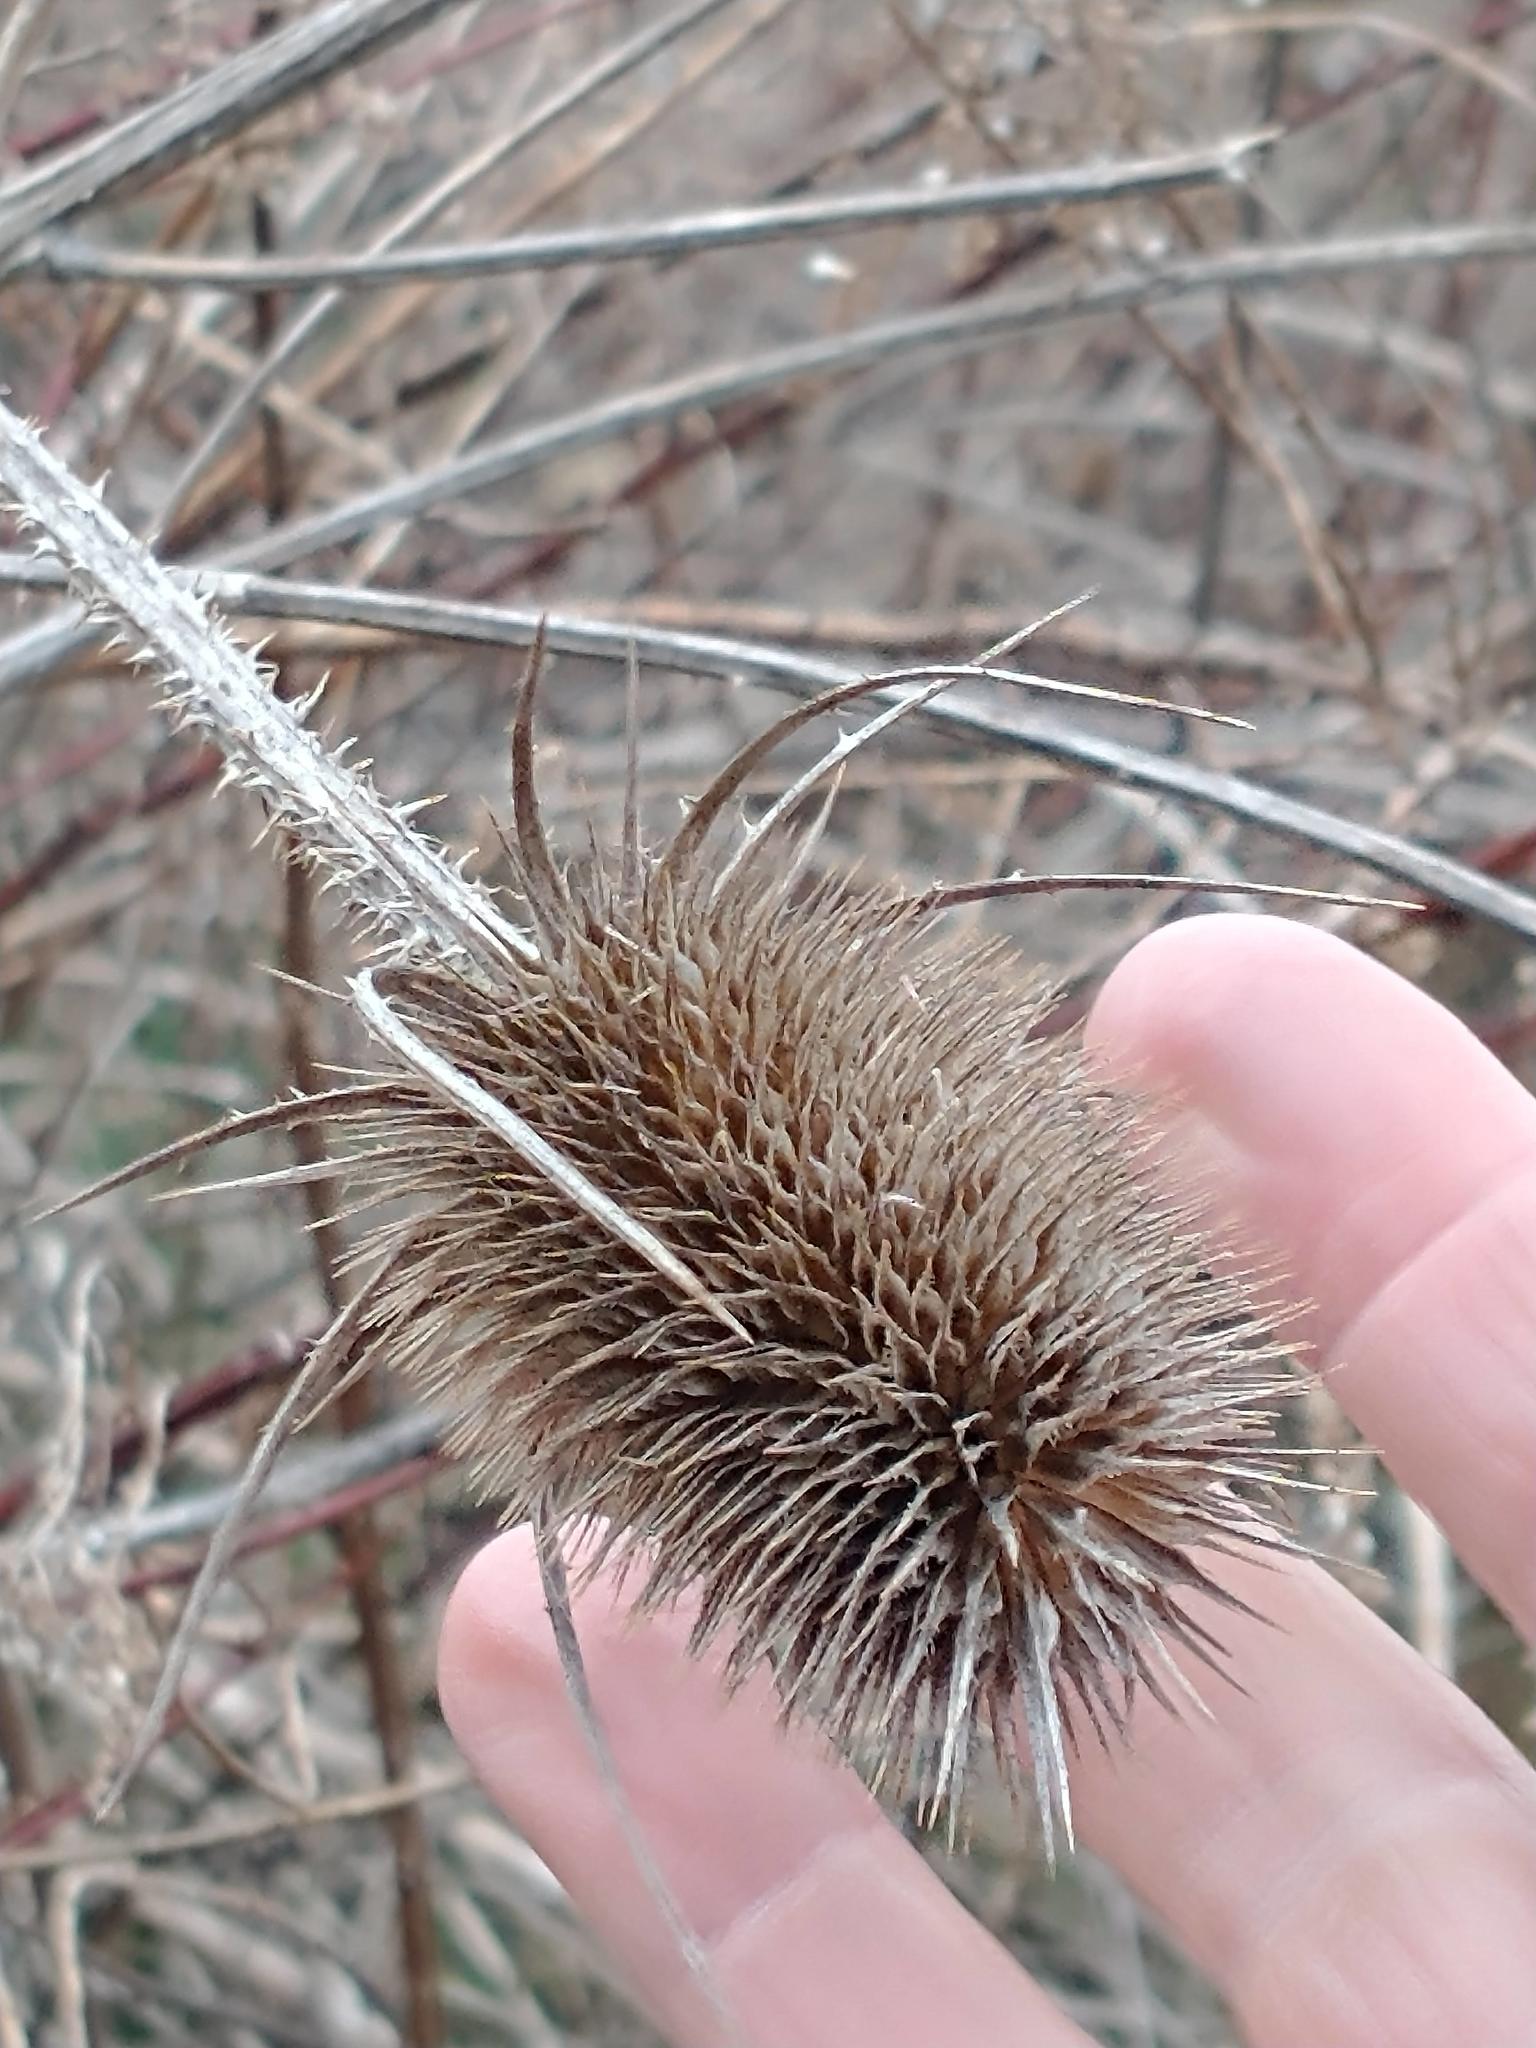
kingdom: Plantae
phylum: Tracheophyta
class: Magnoliopsida
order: Dipsacales
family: Caprifoliaceae
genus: Dipsacus
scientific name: Dipsacus fullonum
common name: Teasel
